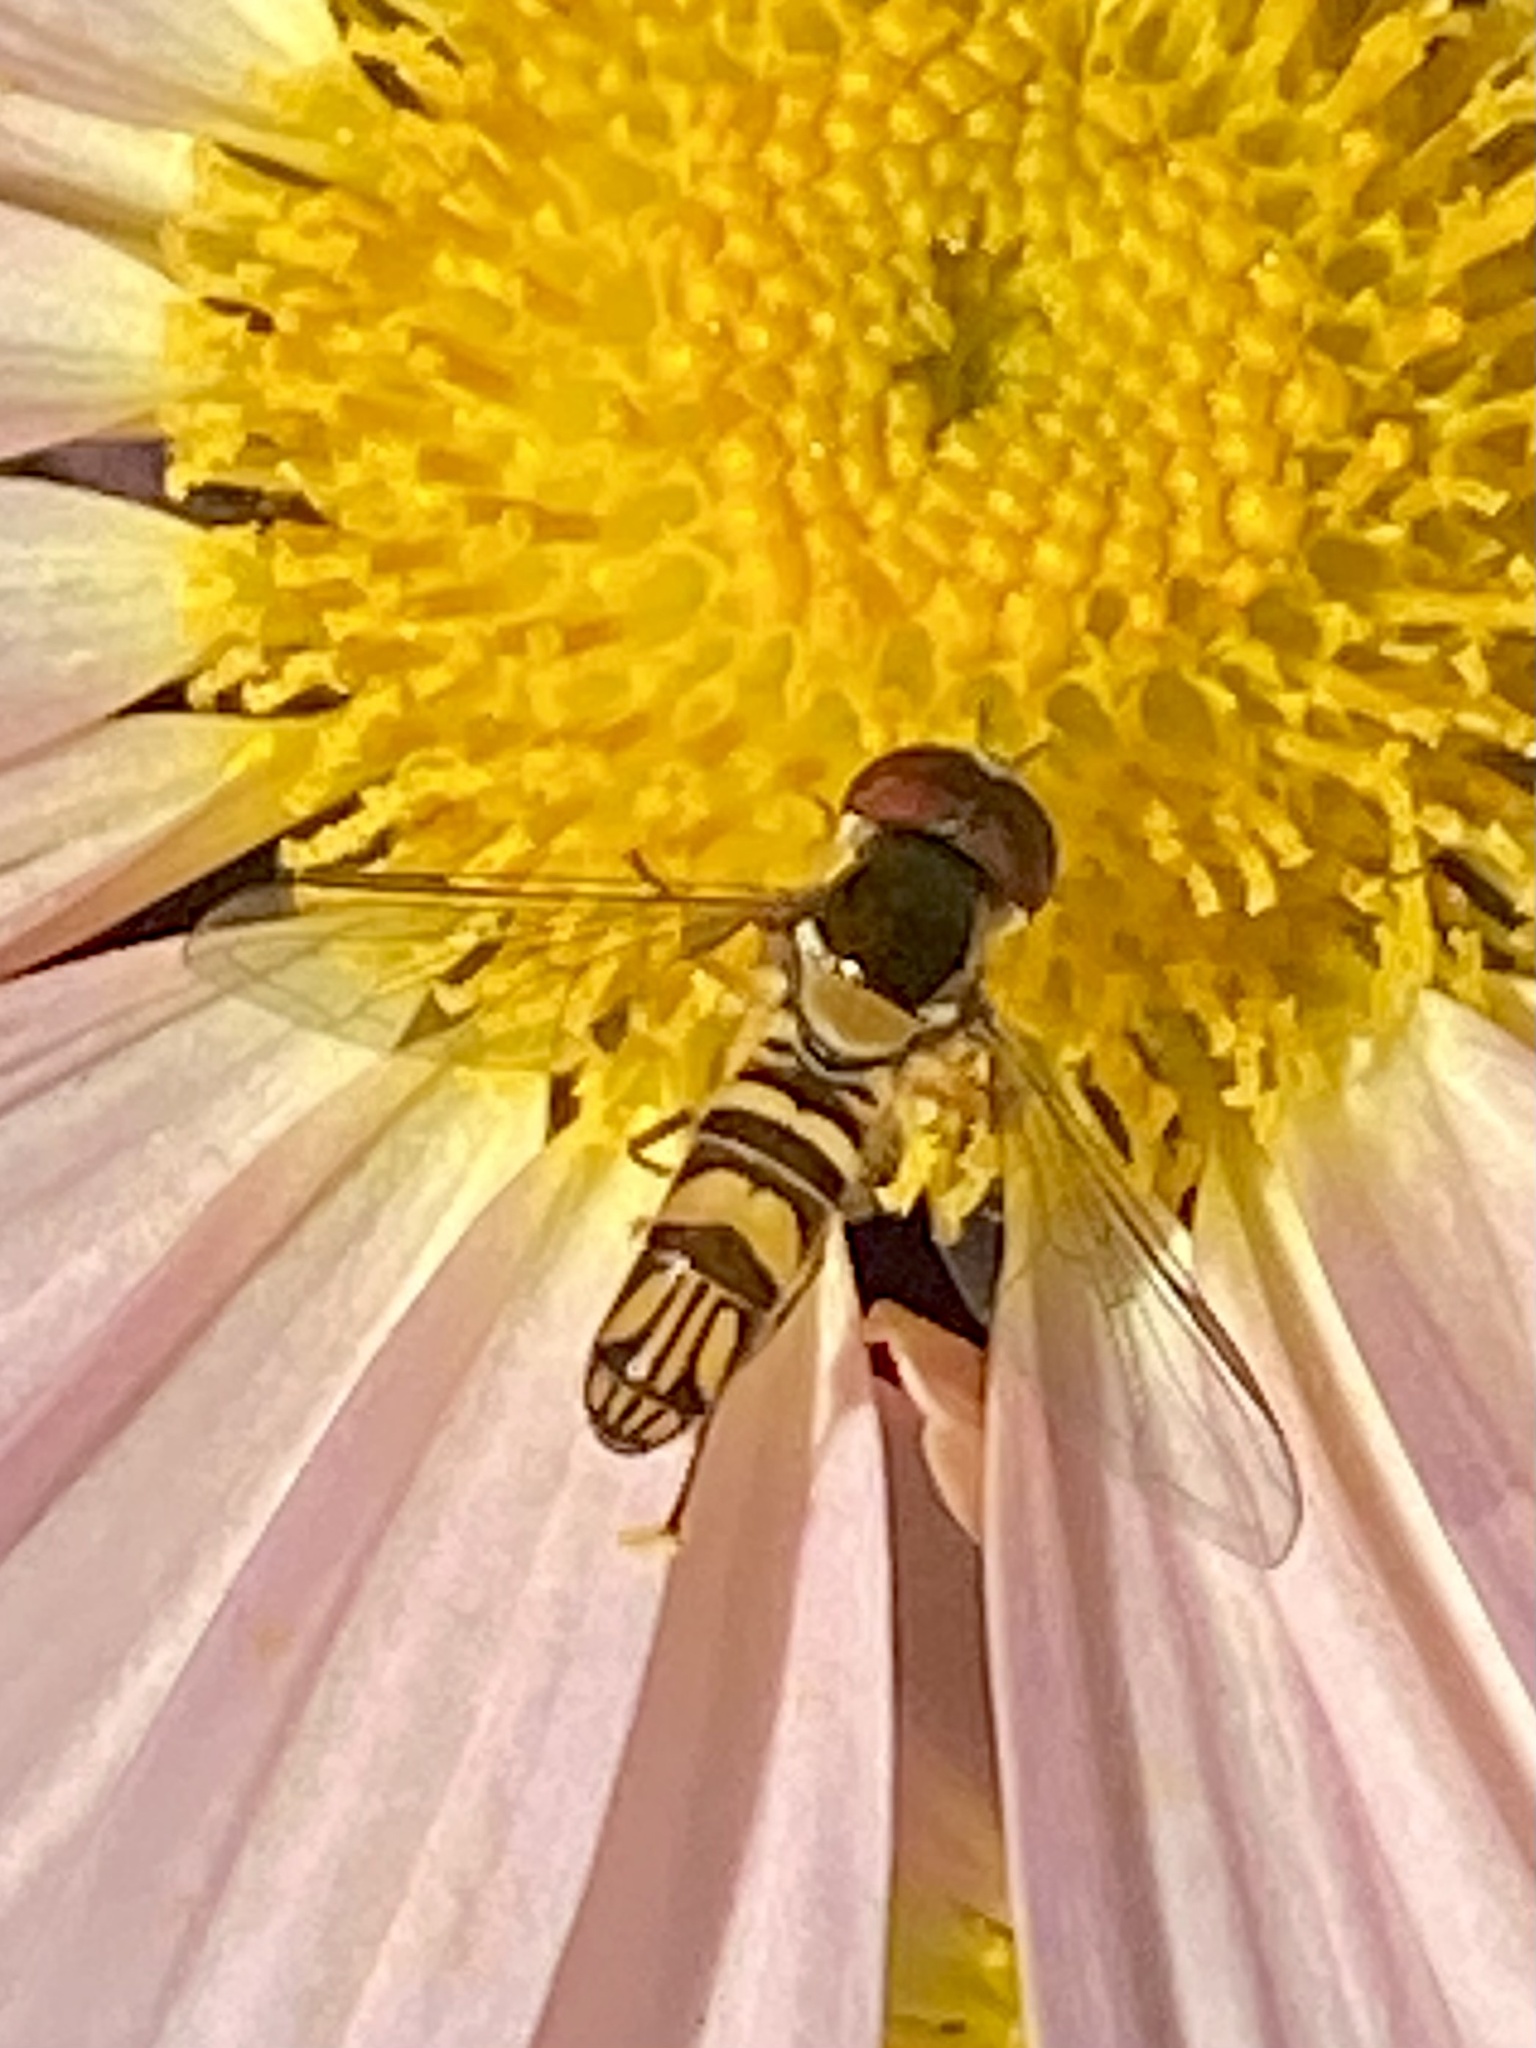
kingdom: Animalia
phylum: Arthropoda
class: Insecta
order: Diptera
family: Syrphidae
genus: Allograpta
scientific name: Allograpta obliqua
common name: Common oblique syrphid
